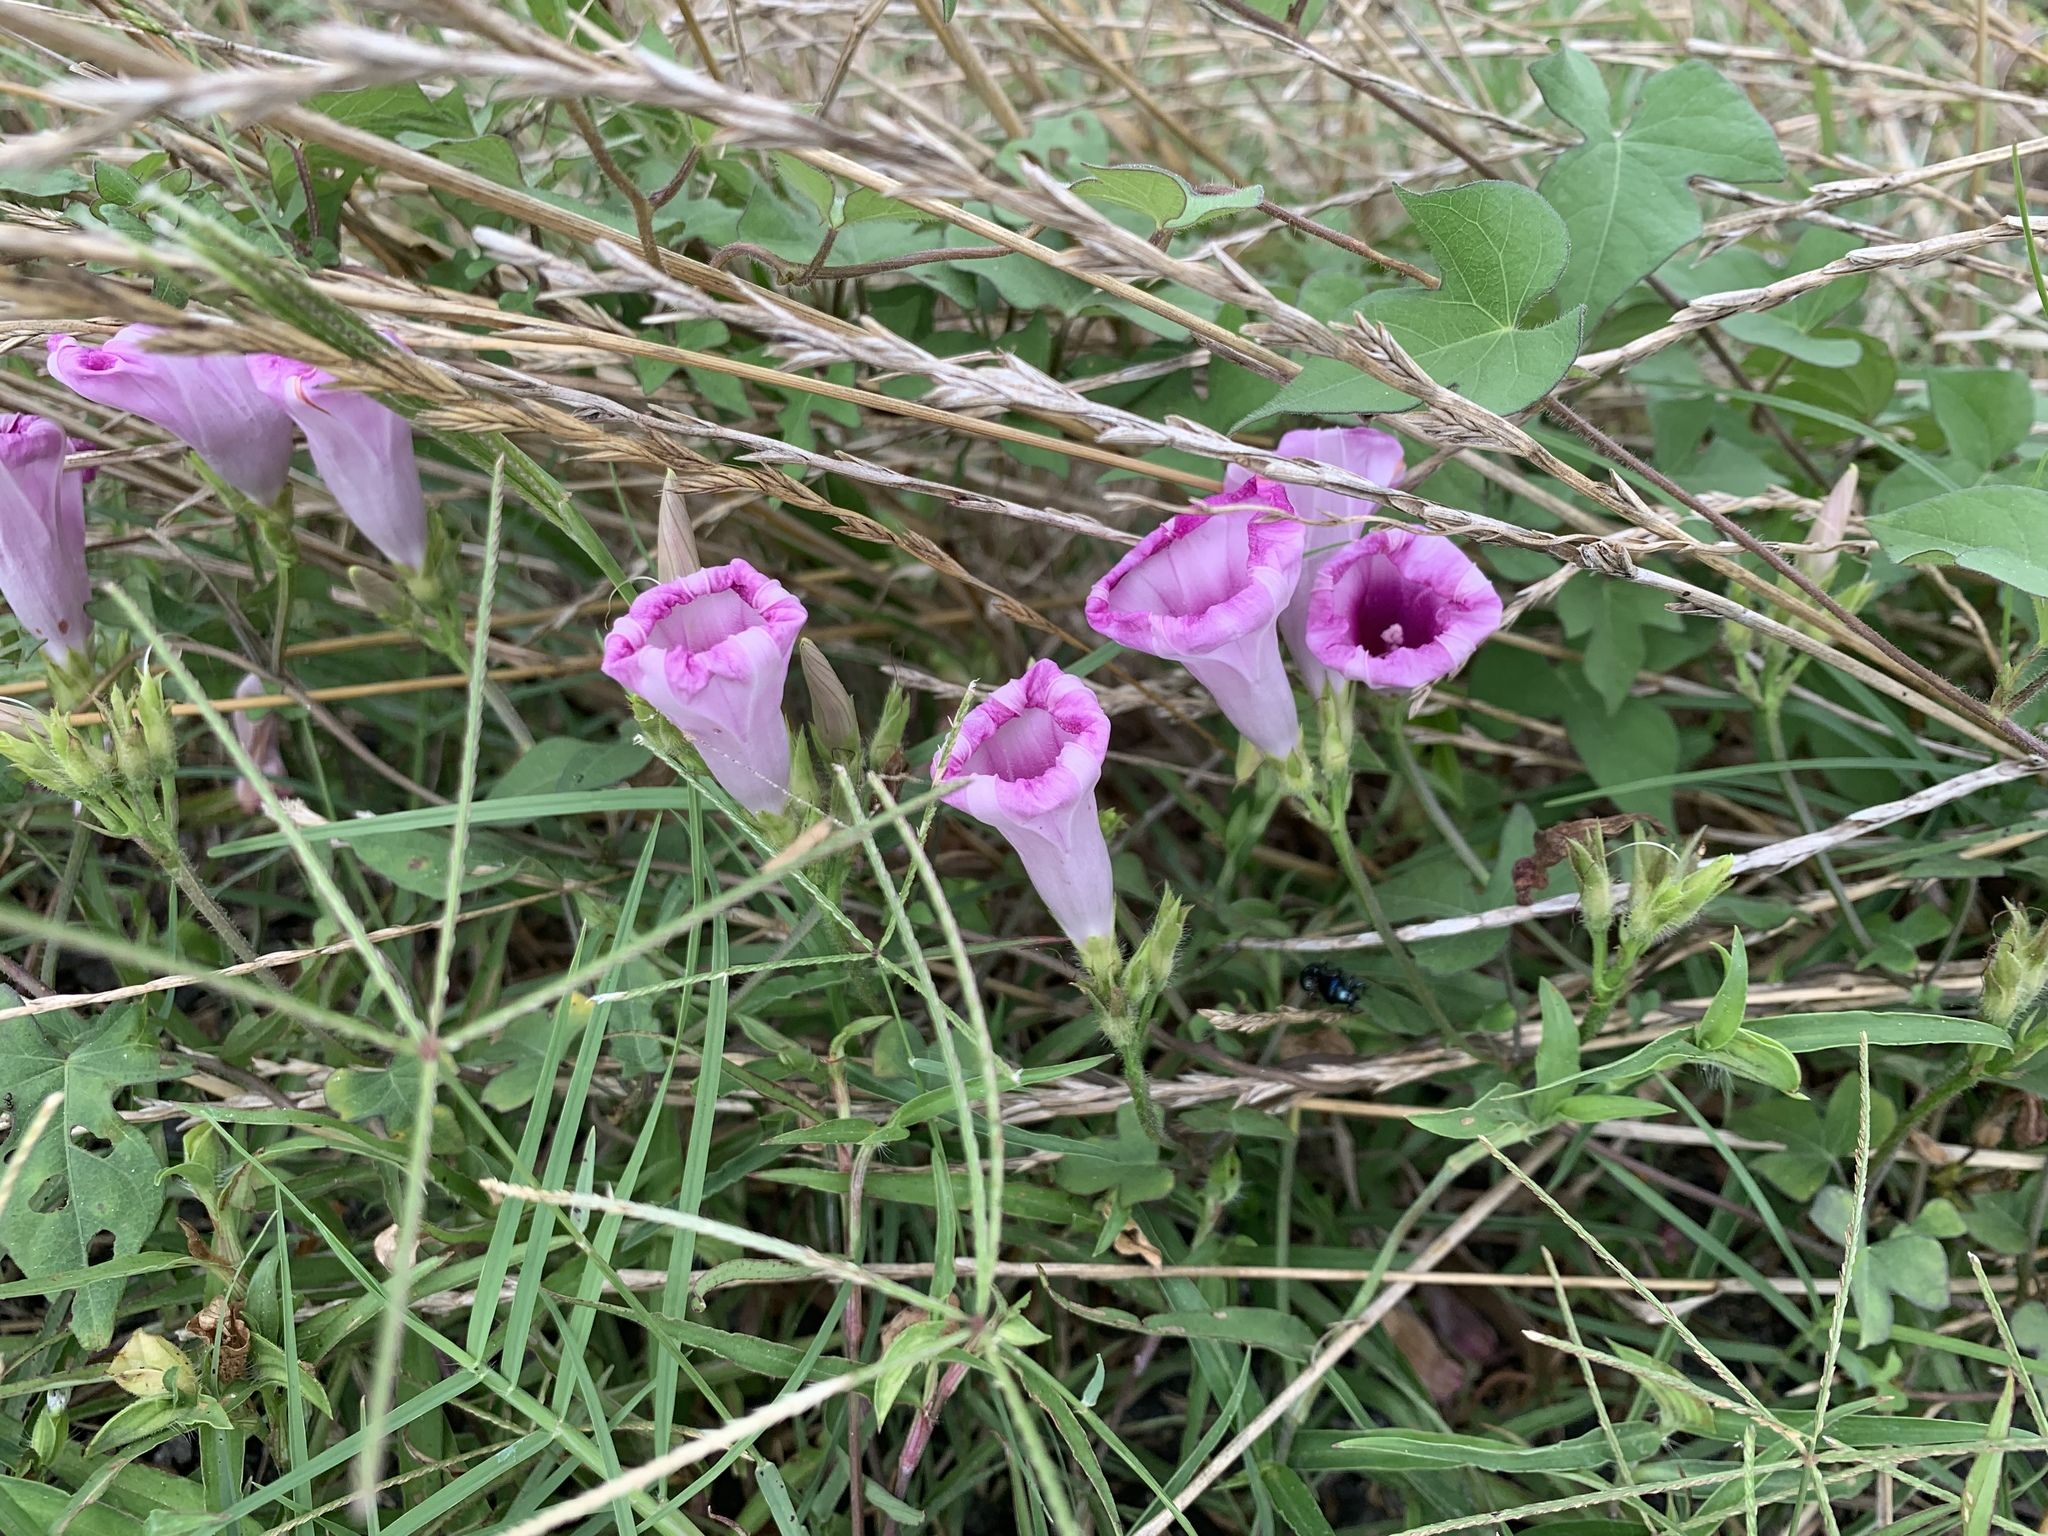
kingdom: Plantae
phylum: Tracheophyta
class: Magnoliopsida
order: Solanales
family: Convolvulaceae
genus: Ipomoea
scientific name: Ipomoea cordatotriloba
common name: Cotton morning glory
